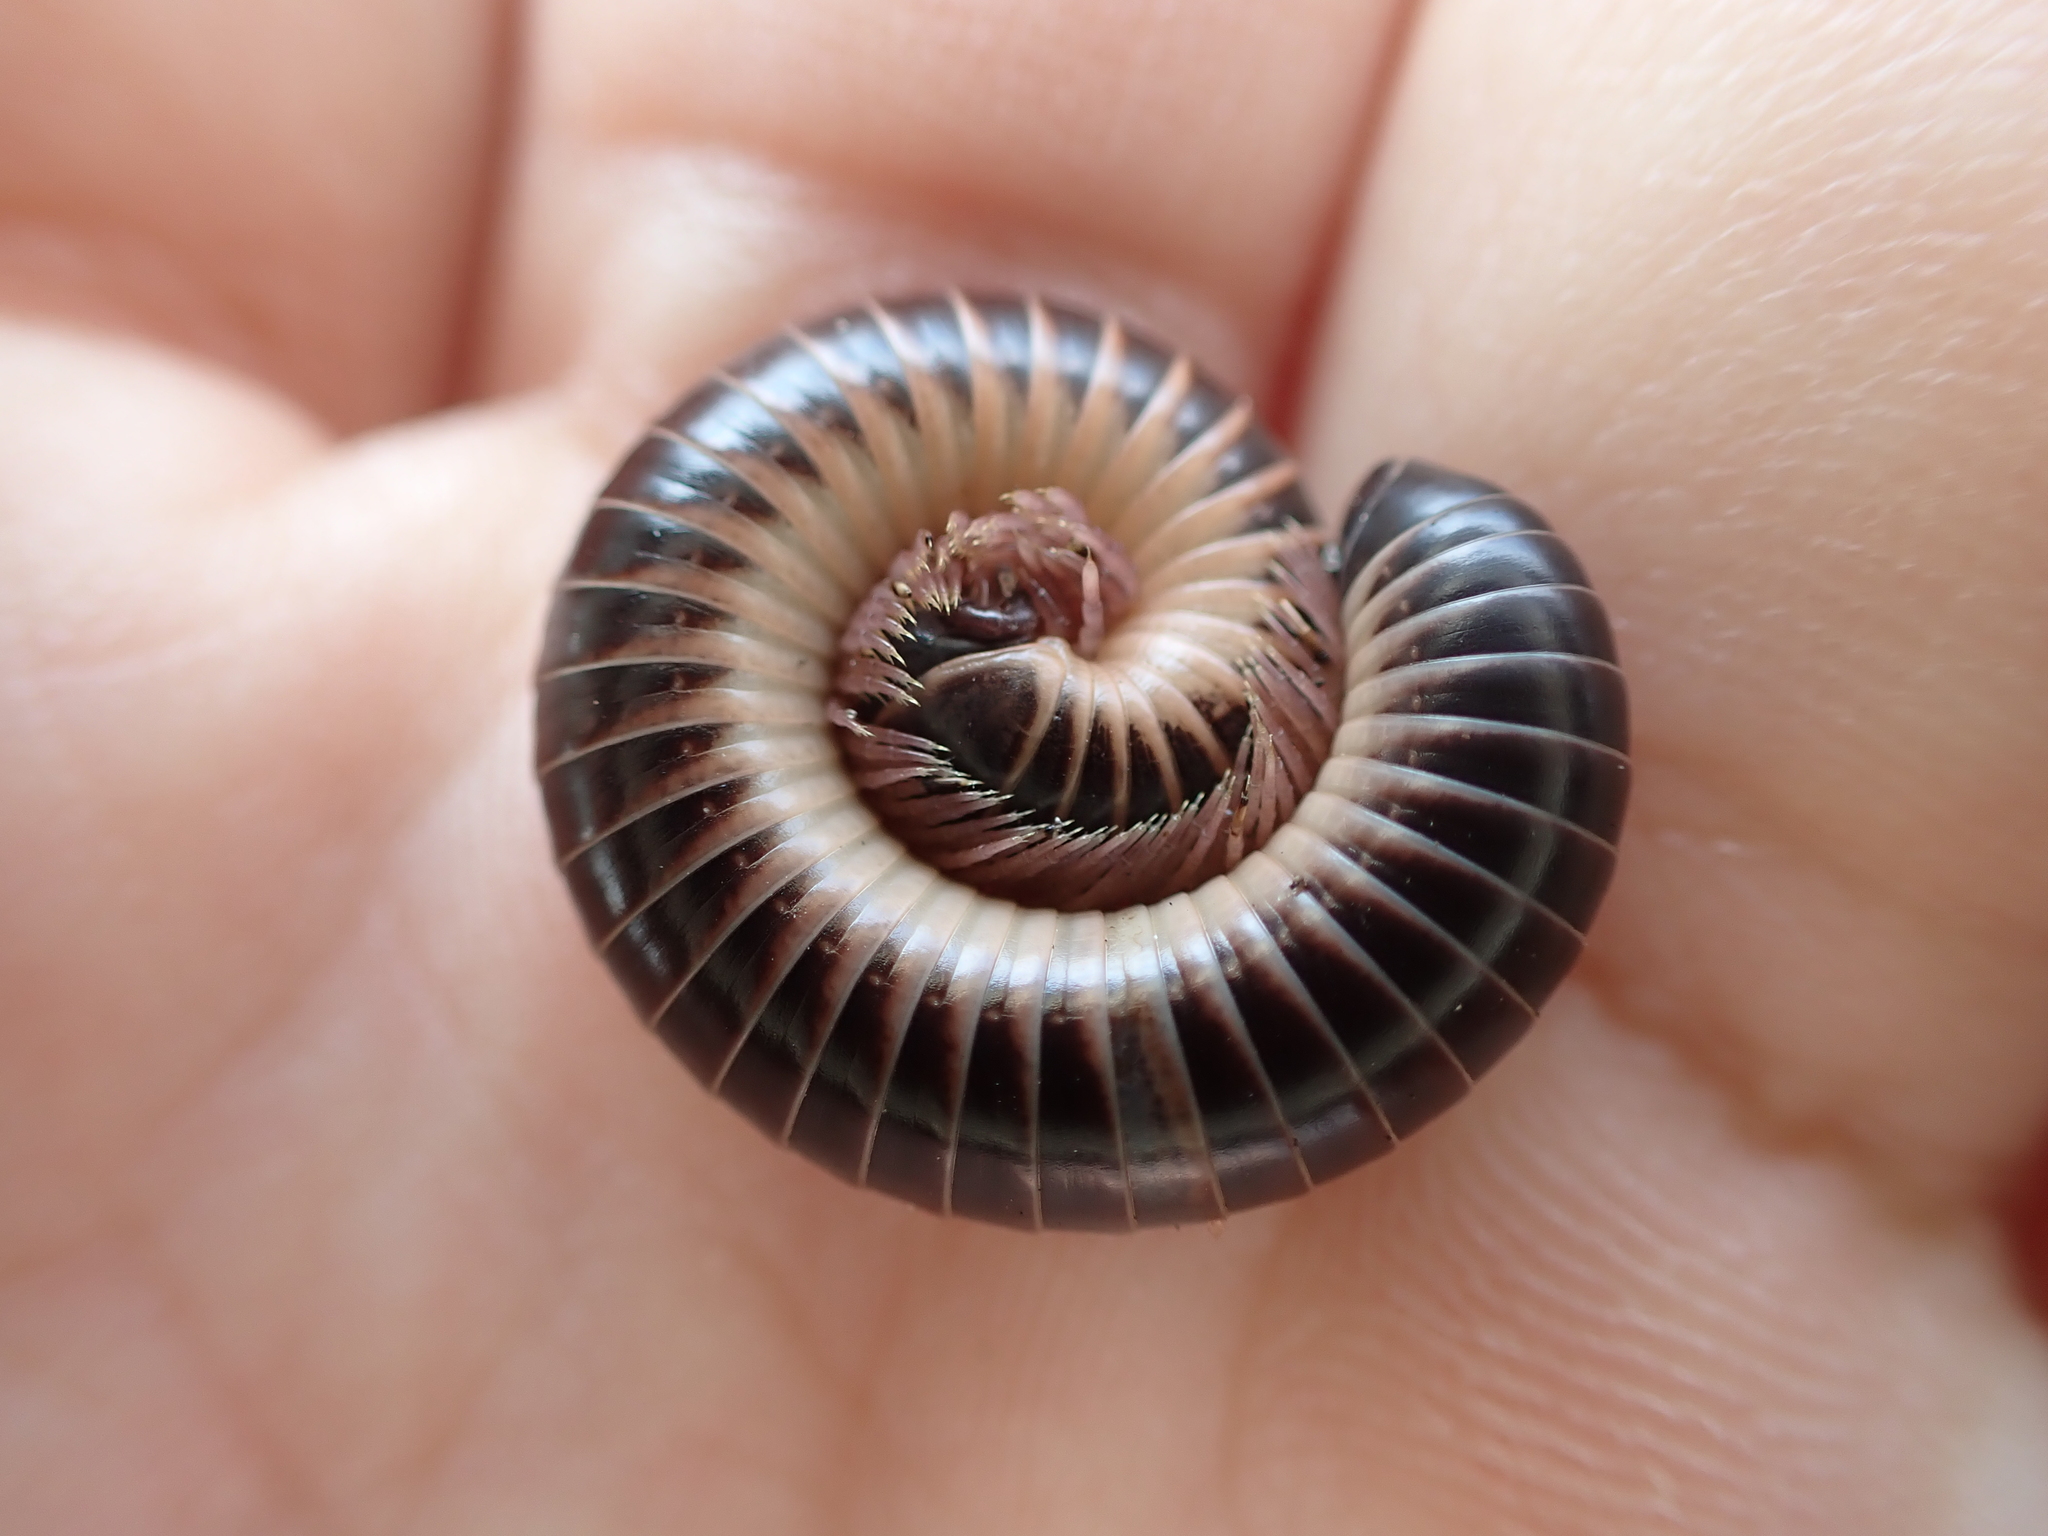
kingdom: Animalia
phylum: Arthropoda
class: Diplopoda
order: Spirobolida
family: Spirobolidae
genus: Chicobolus
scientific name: Chicobolus spinigerus
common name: Florida ivory millipede
